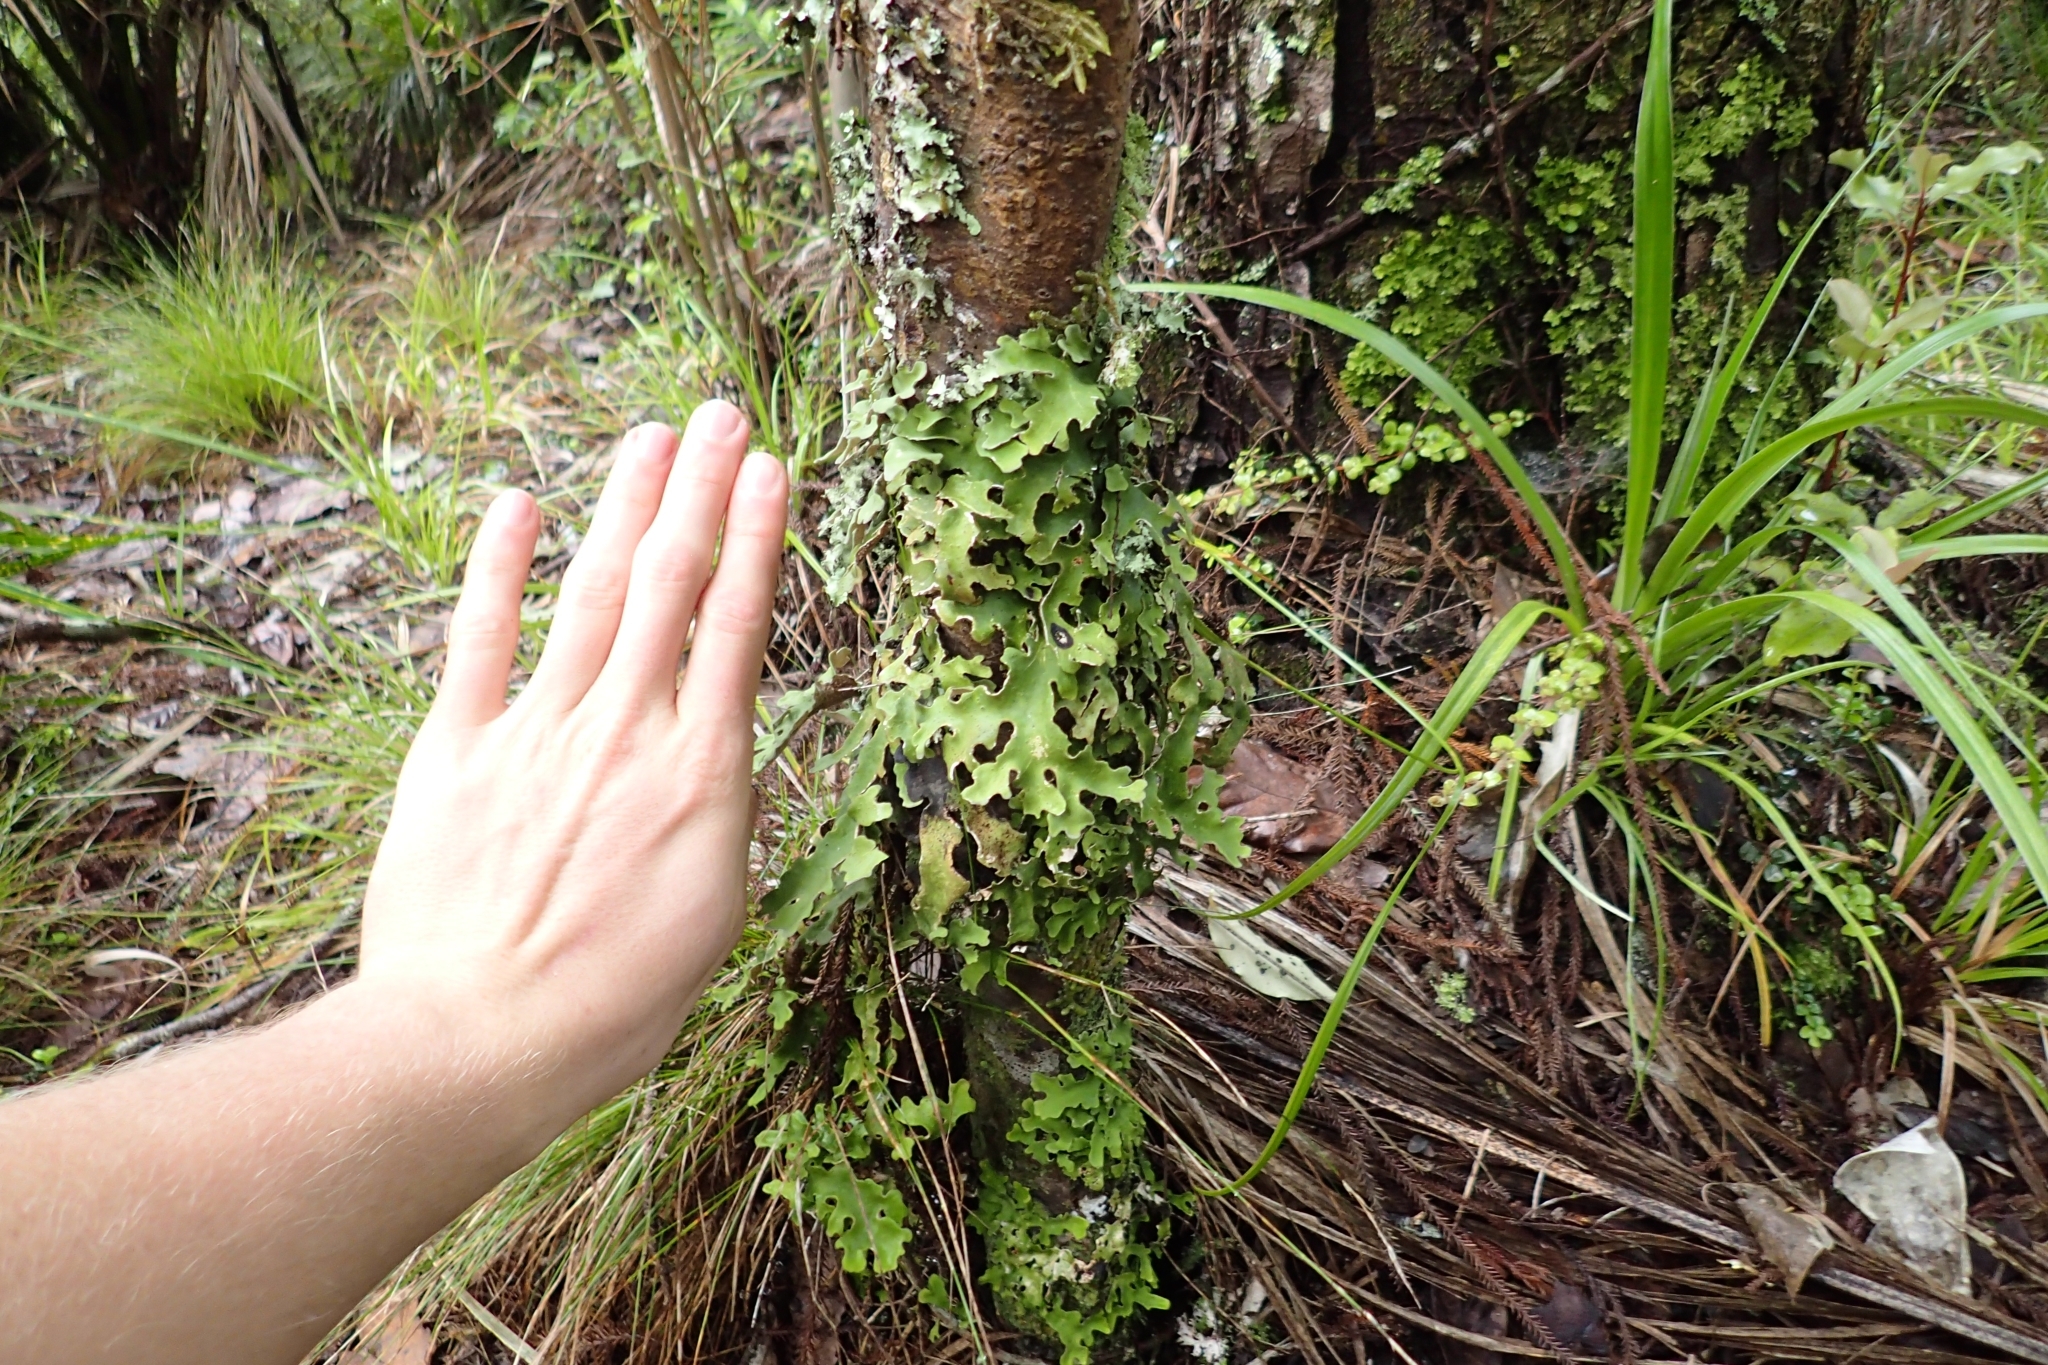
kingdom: Fungi
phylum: Ascomycota
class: Lecanoromycetes
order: Peltigerales
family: Lobariaceae
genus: Pseudocyphellaria
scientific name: Pseudocyphellaria homeophylla
